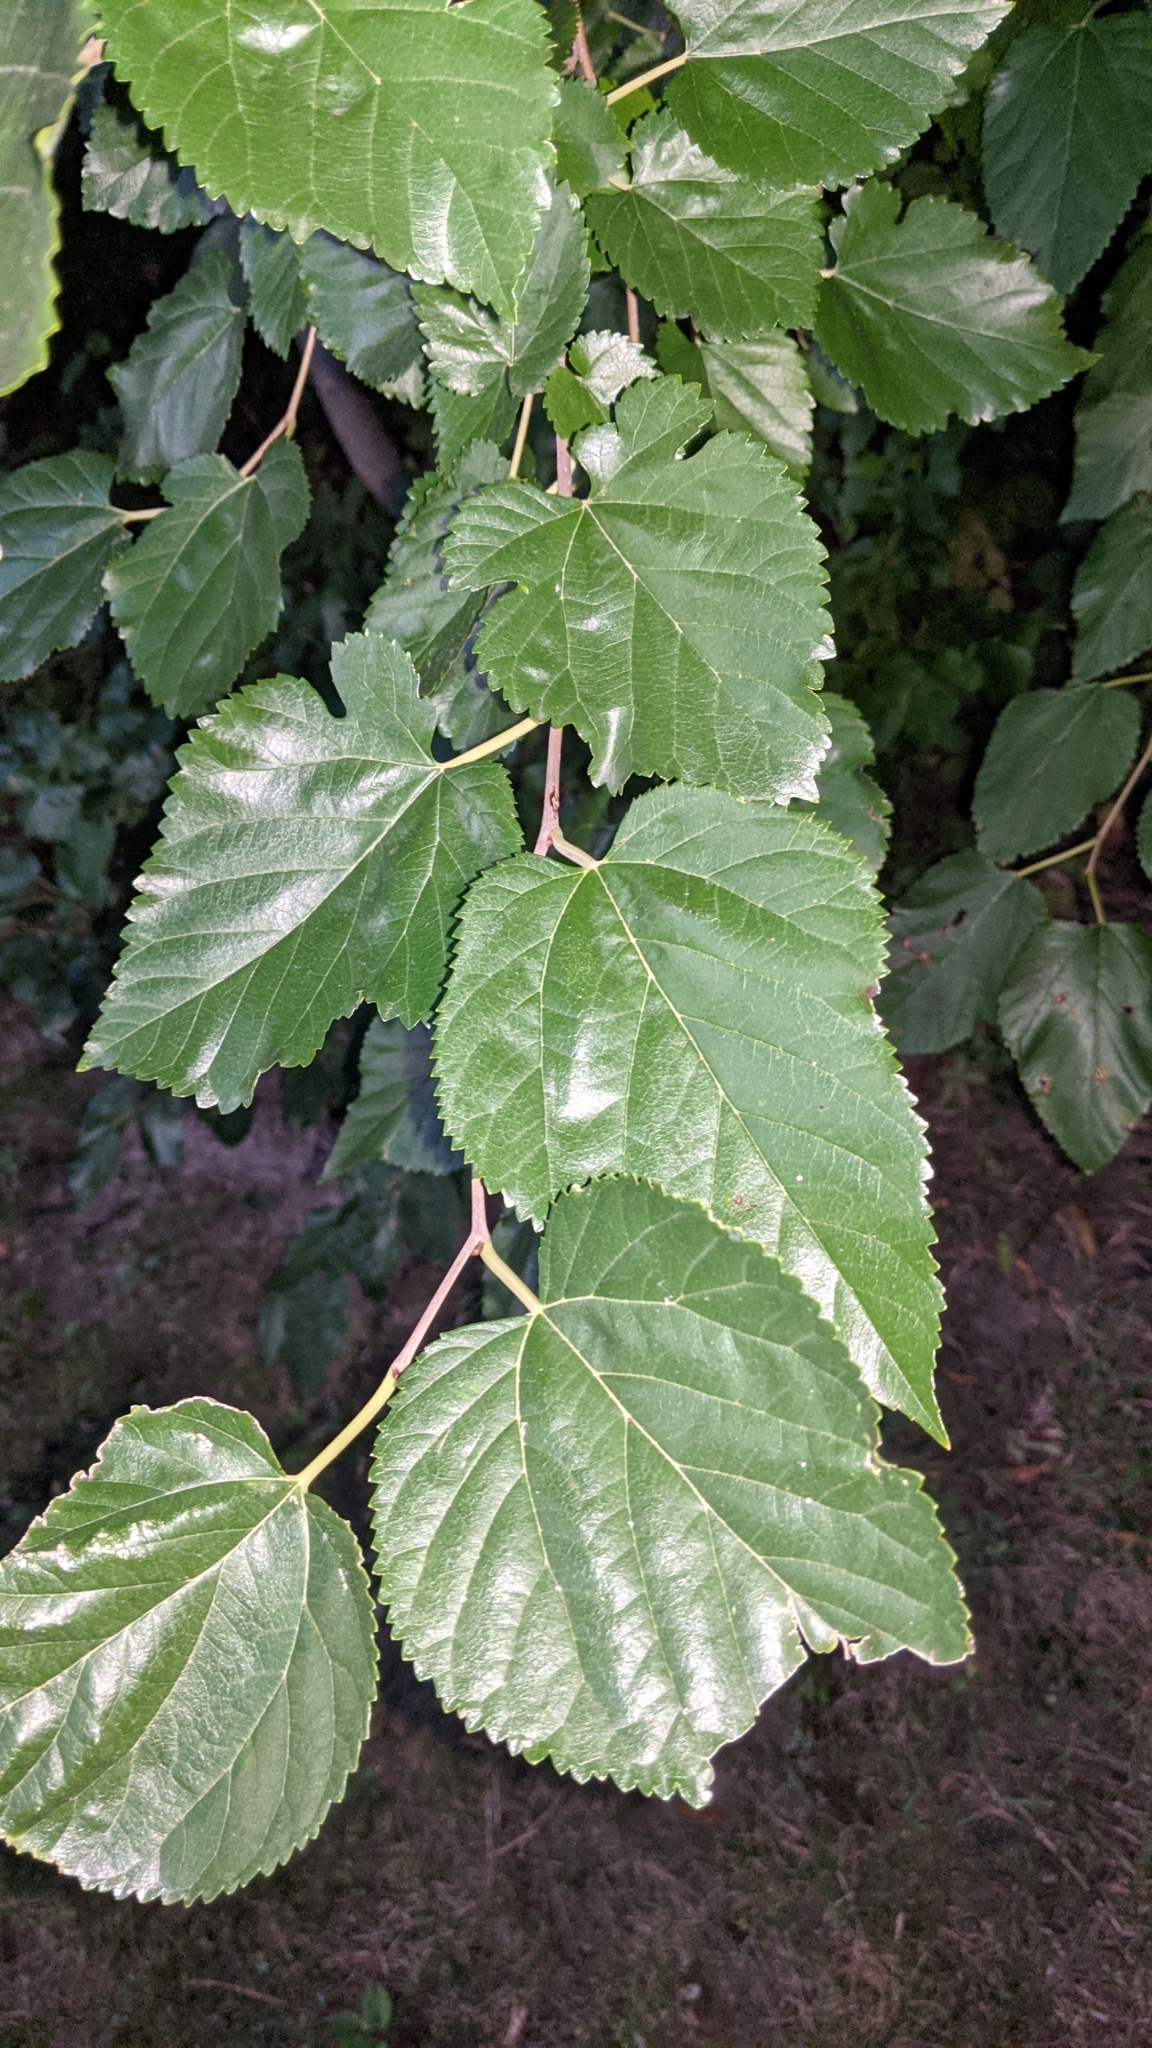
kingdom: Plantae
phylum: Tracheophyta
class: Magnoliopsida
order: Rosales
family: Moraceae
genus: Morus
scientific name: Morus alba
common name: White mulberry
